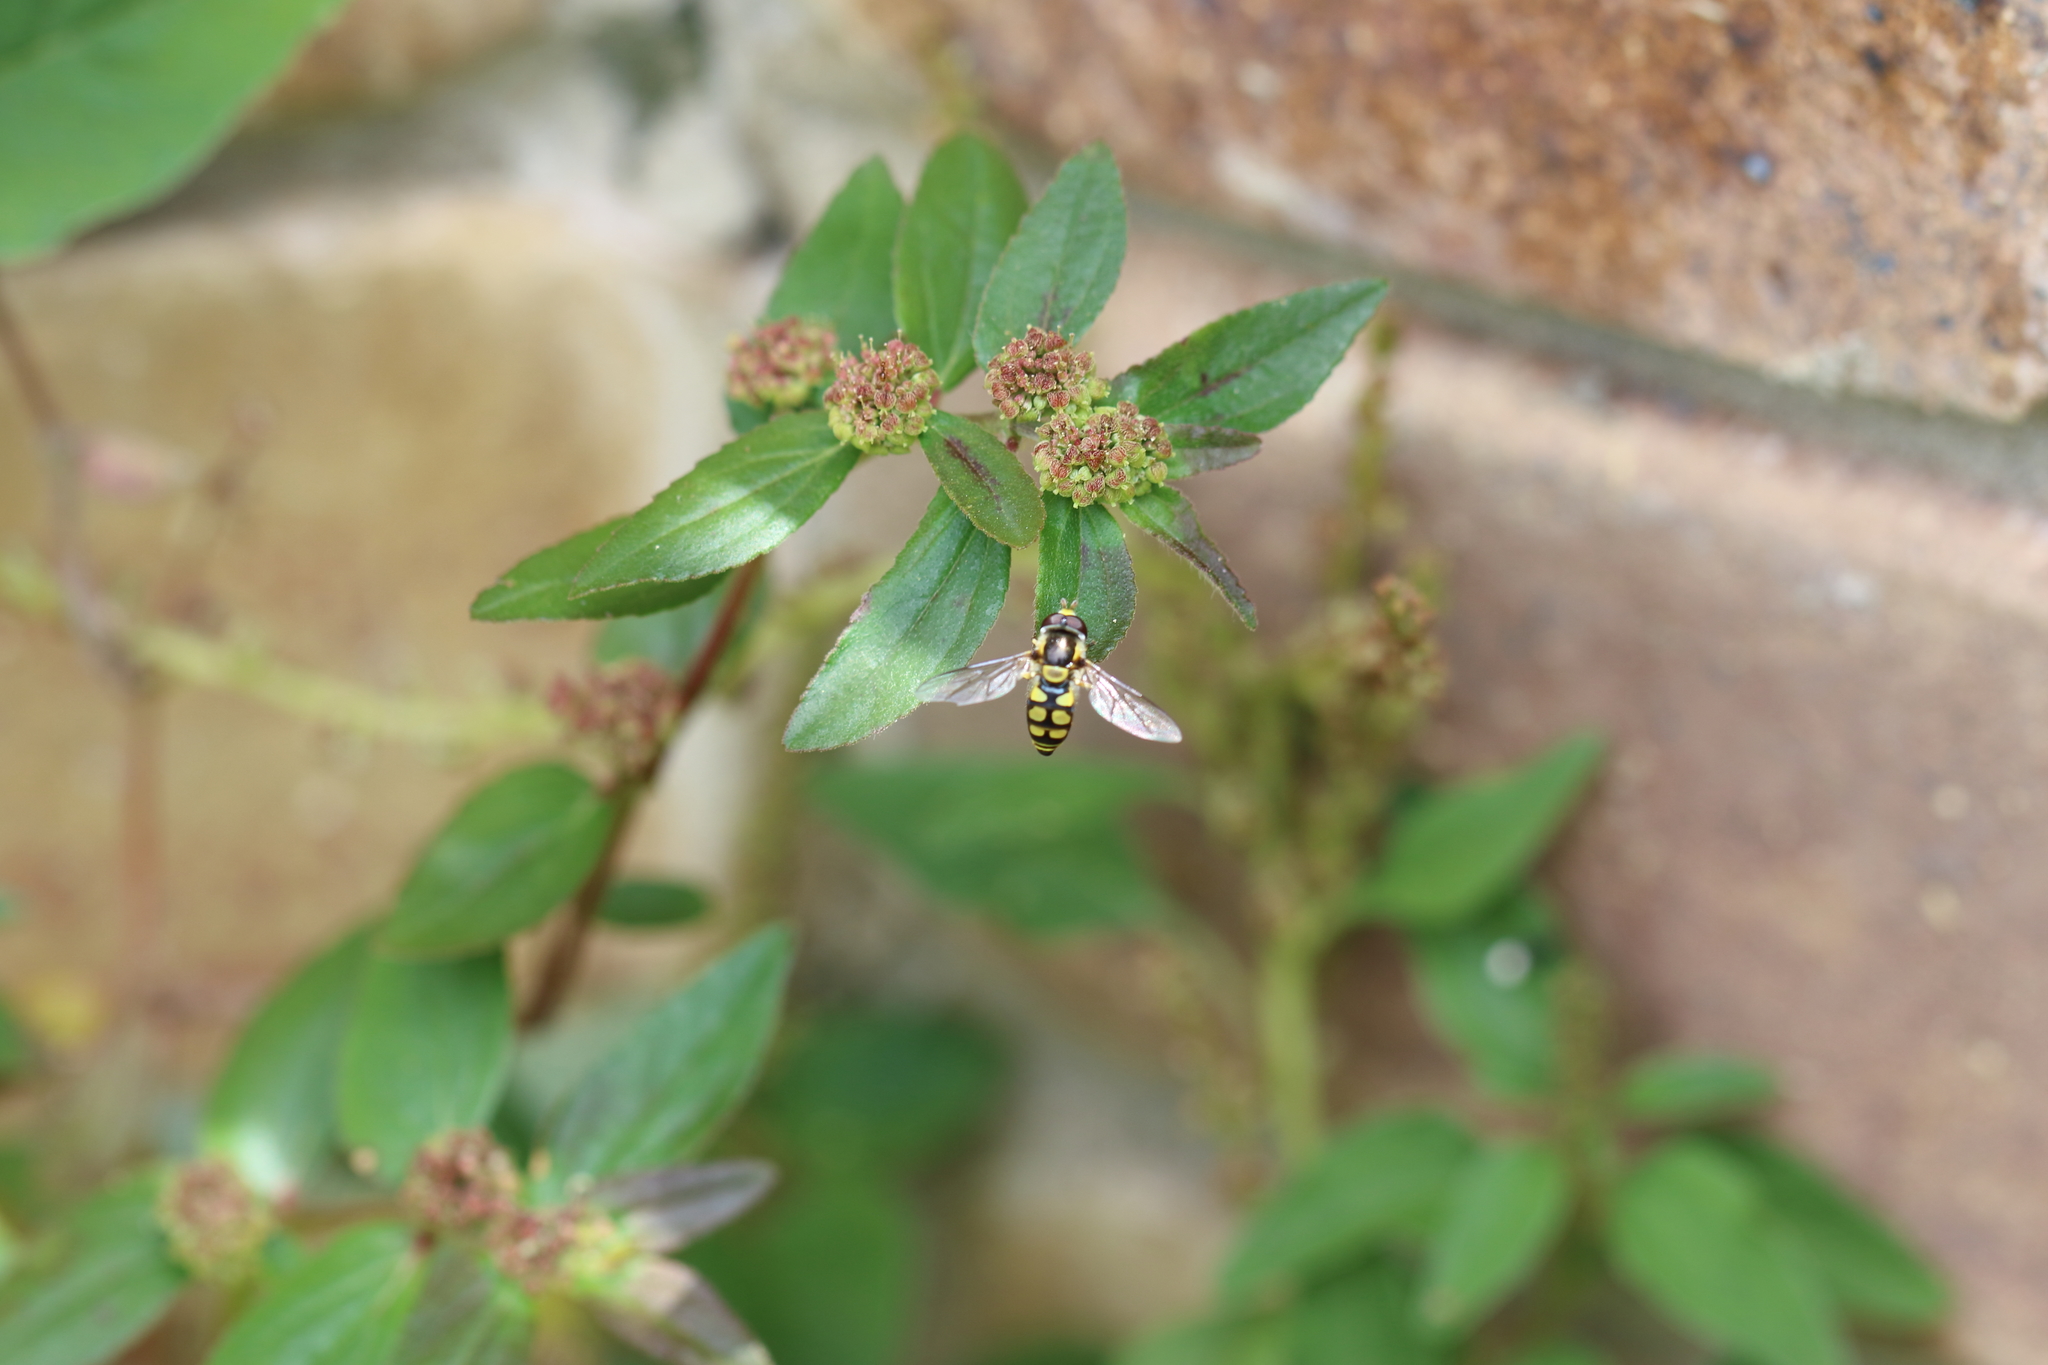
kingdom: Plantae
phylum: Tracheophyta
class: Magnoliopsida
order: Malpighiales
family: Euphorbiaceae
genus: Euphorbia
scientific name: Euphorbia hirta
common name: Pillpod sandmat
